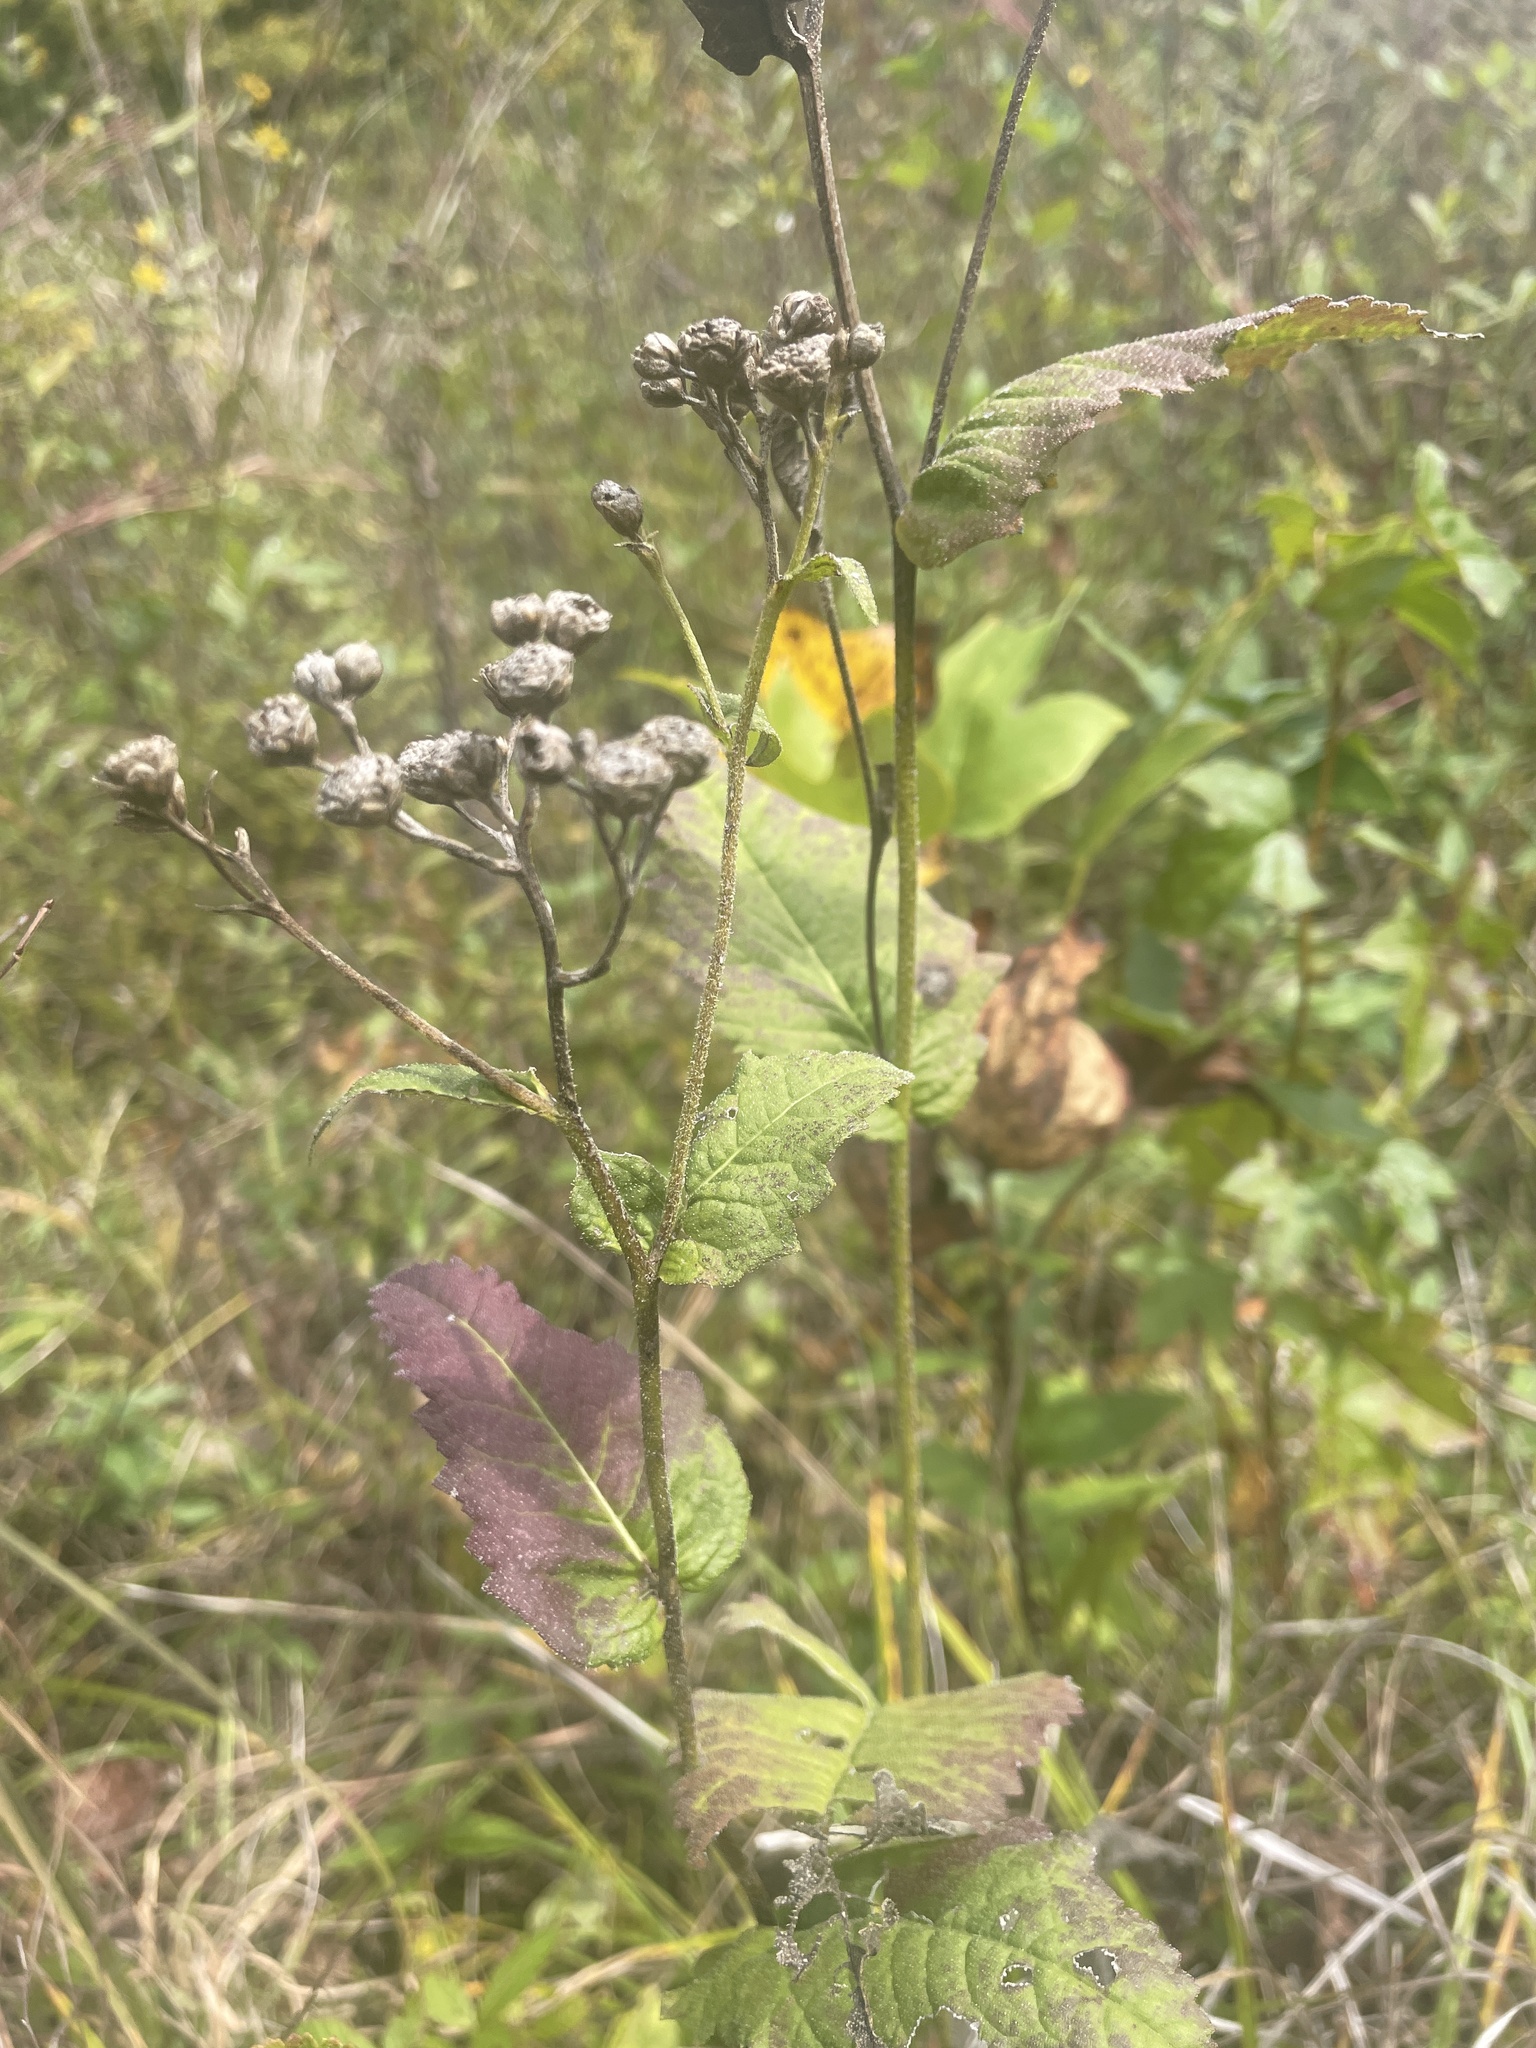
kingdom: Plantae
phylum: Tracheophyta
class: Magnoliopsida
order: Asterales
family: Asteraceae
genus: Parthenium
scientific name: Parthenium integrifolium
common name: American feverfew
